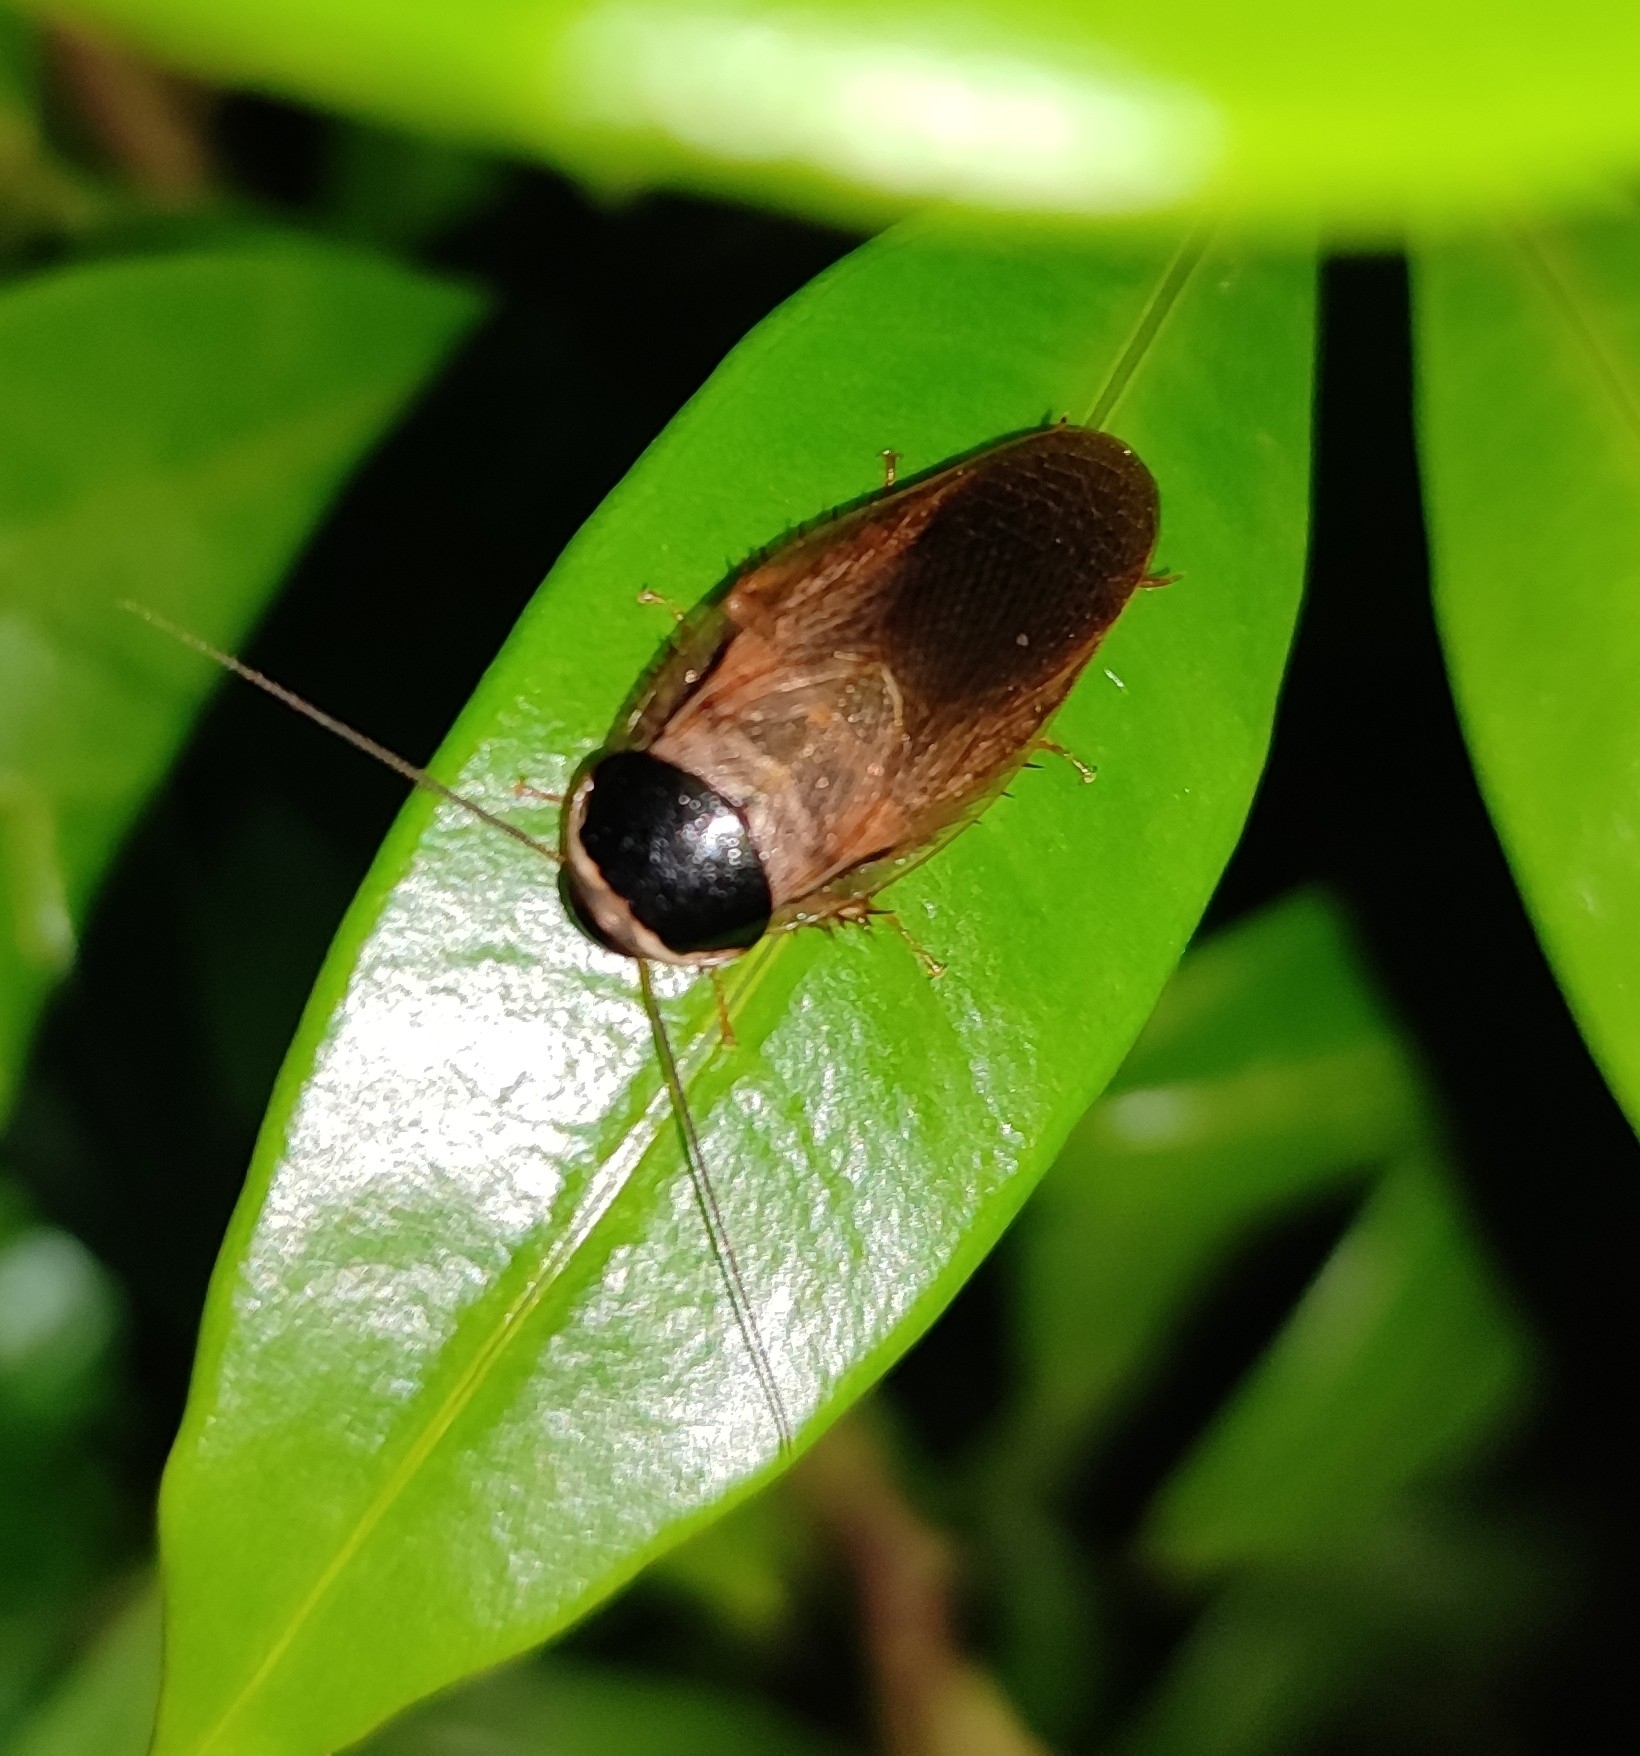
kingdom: Animalia
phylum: Arthropoda
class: Insecta
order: Blattodea
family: Blaberidae
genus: Pycnoscelus
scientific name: Pycnoscelus indicus
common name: Burrowing cockroach
